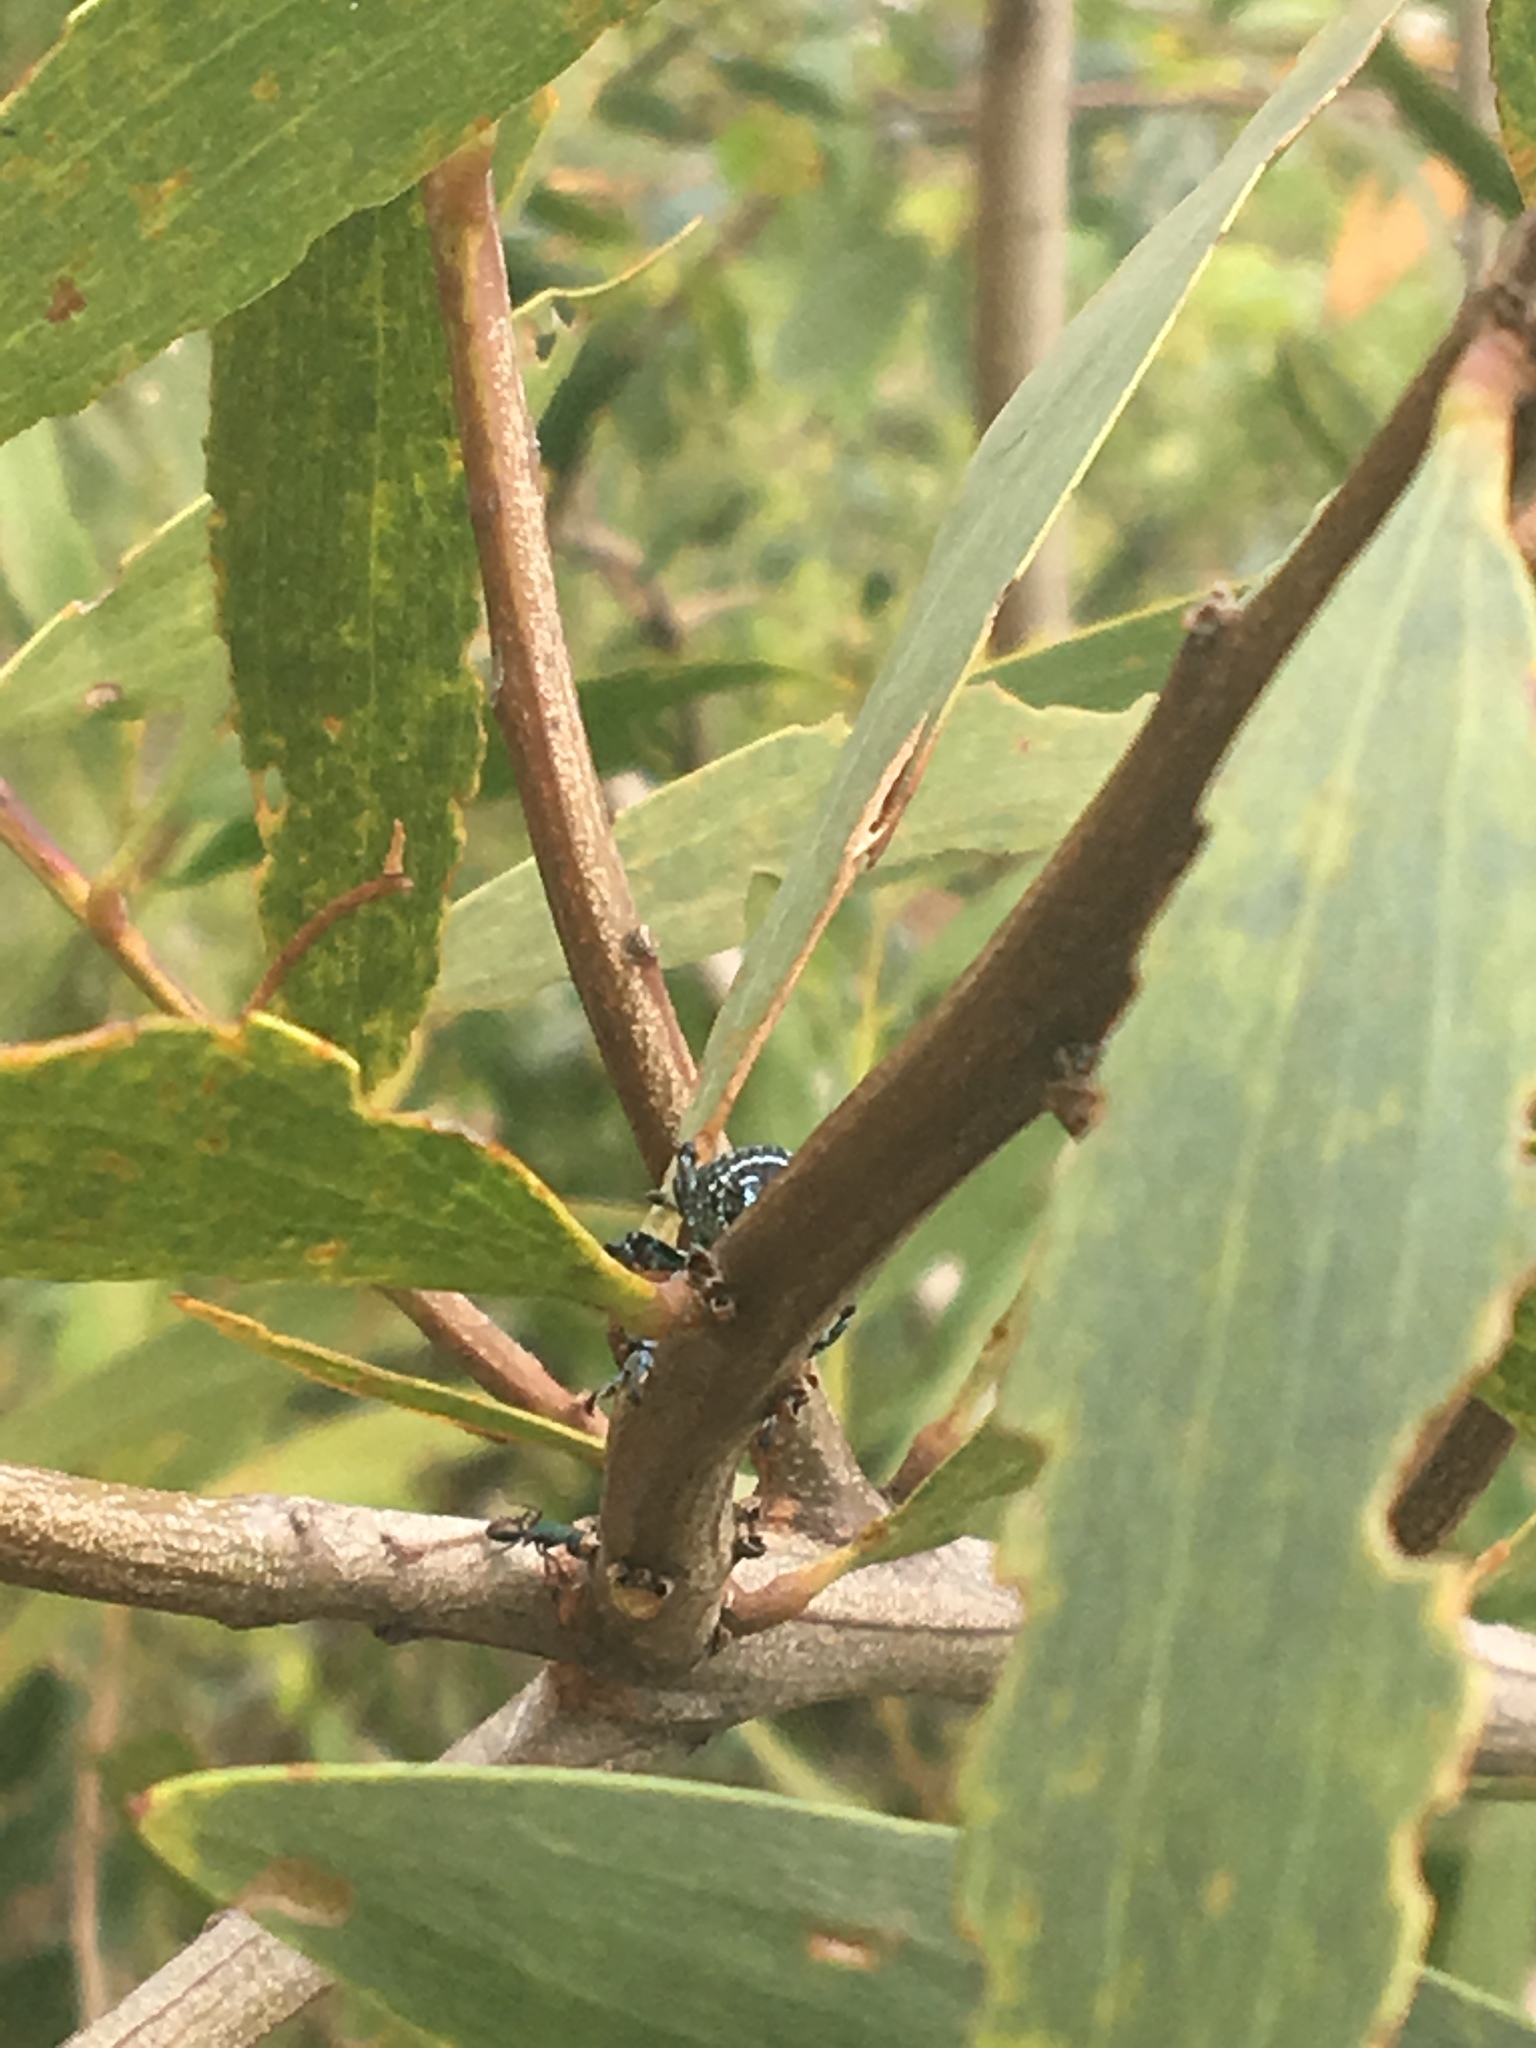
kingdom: Animalia
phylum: Arthropoda
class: Insecta
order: Coleoptera
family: Curculionidae
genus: Chrysolopus
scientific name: Chrysolopus spectabilis
